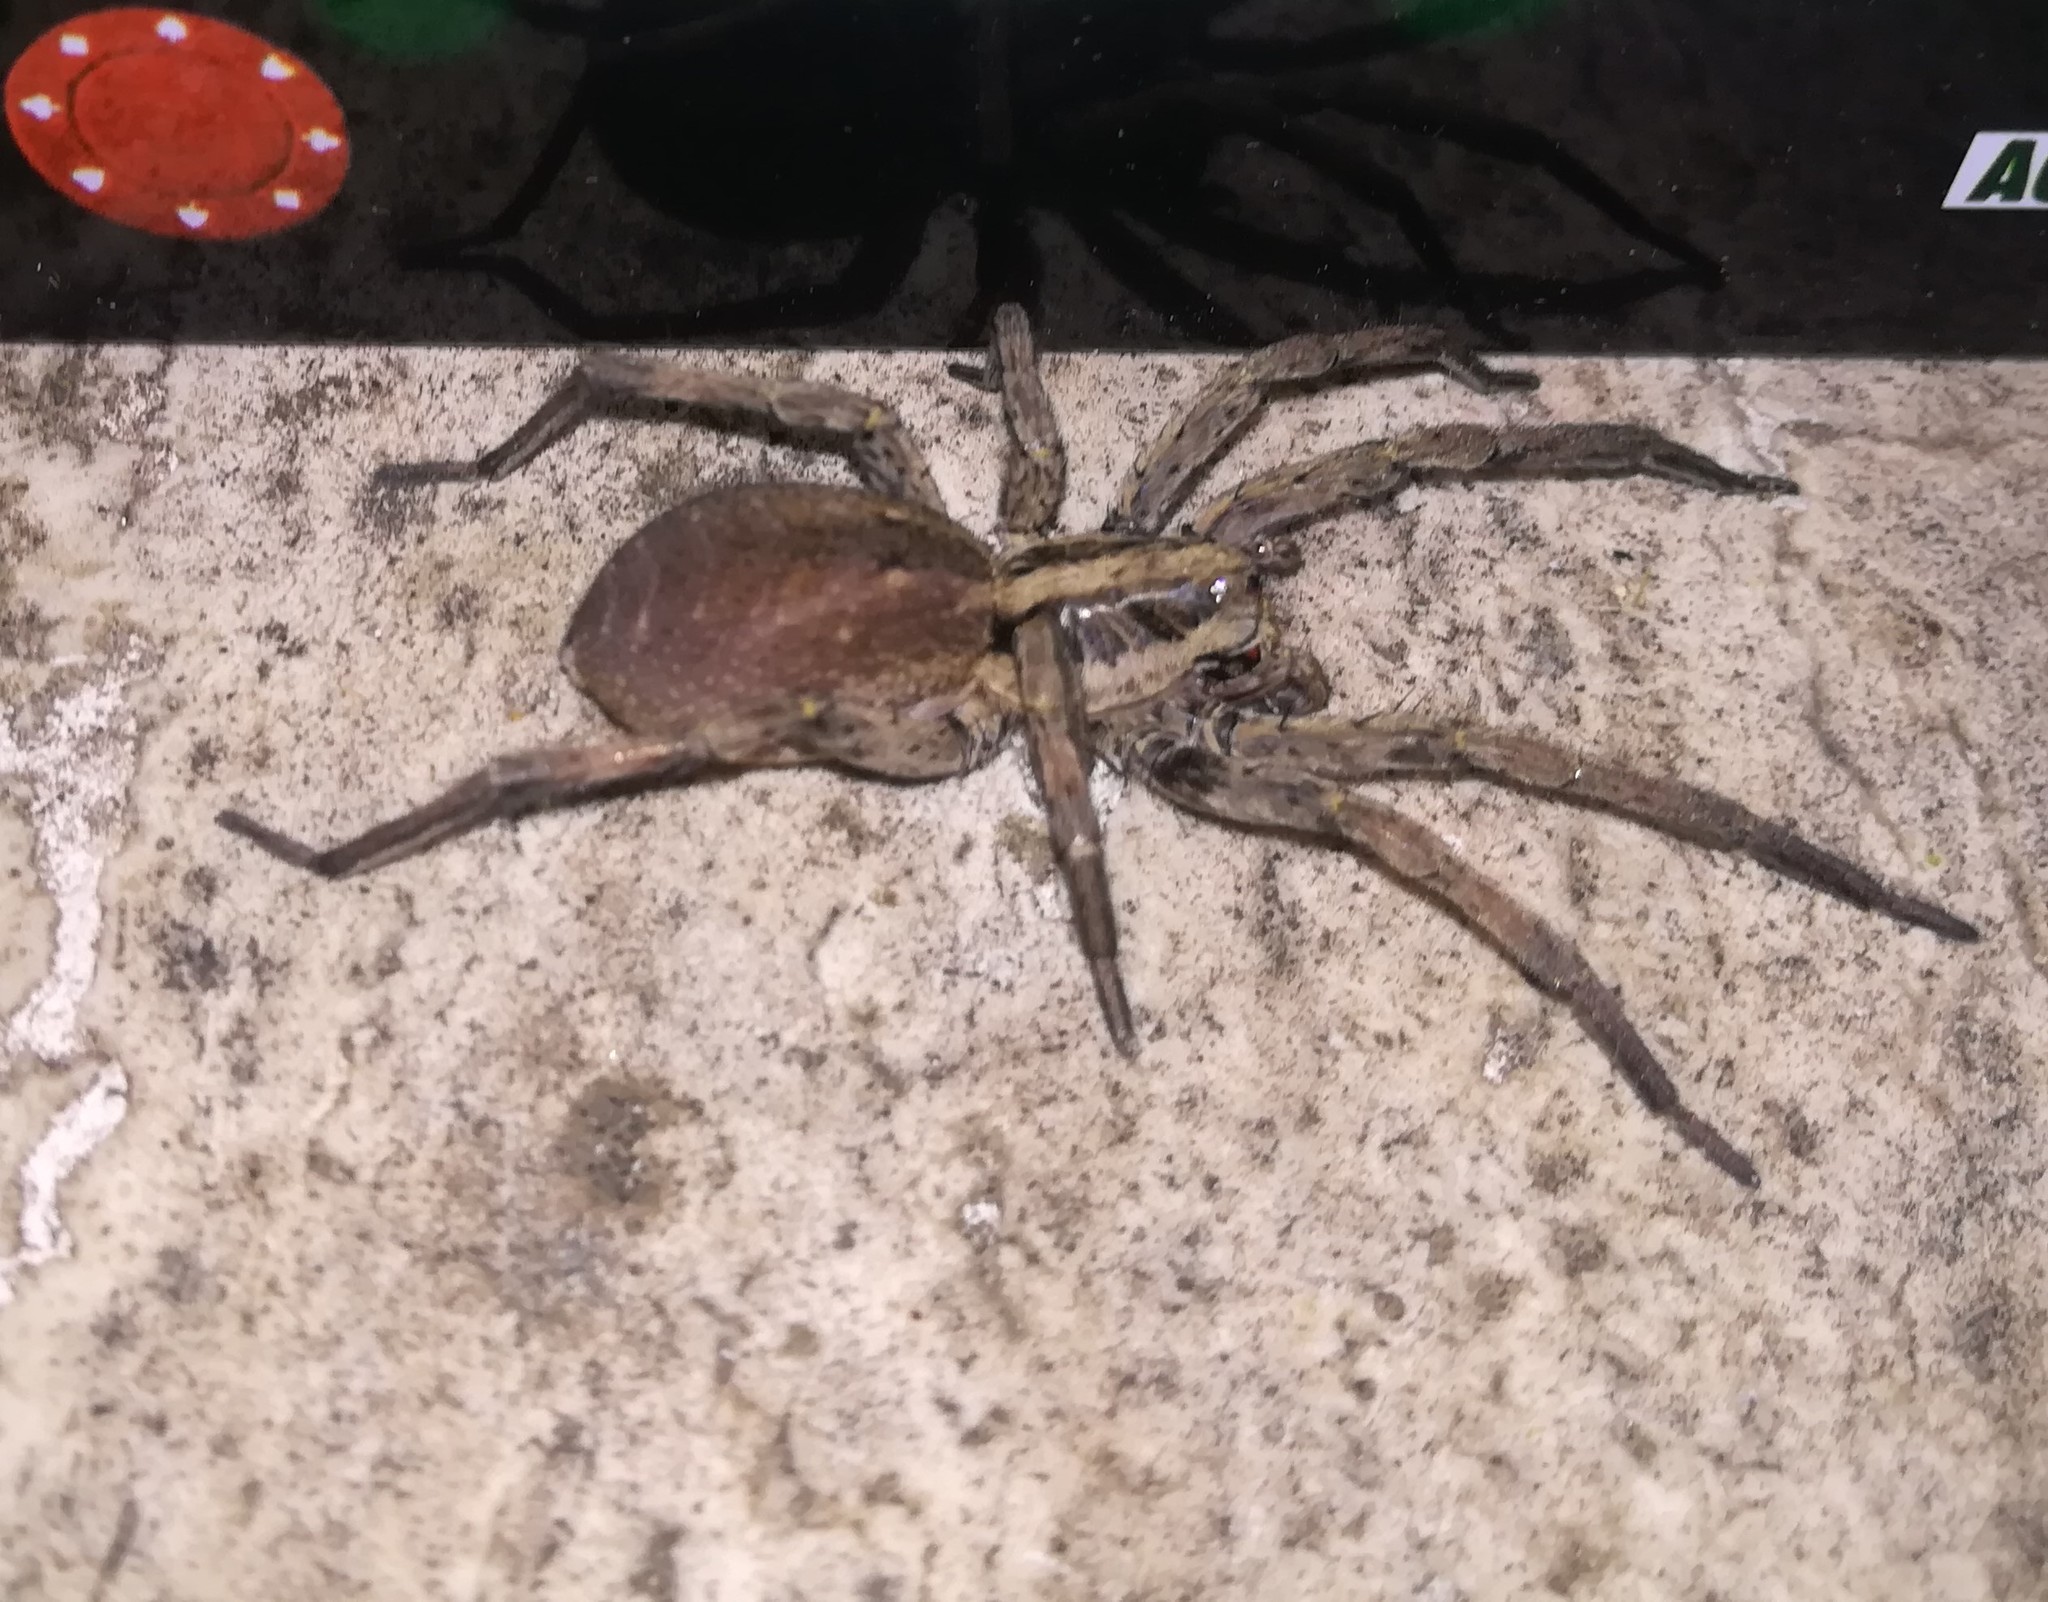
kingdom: Animalia
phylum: Arthropoda
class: Arachnida
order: Araneae
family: Lycosidae
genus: Hogna
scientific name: Hogna radiata
